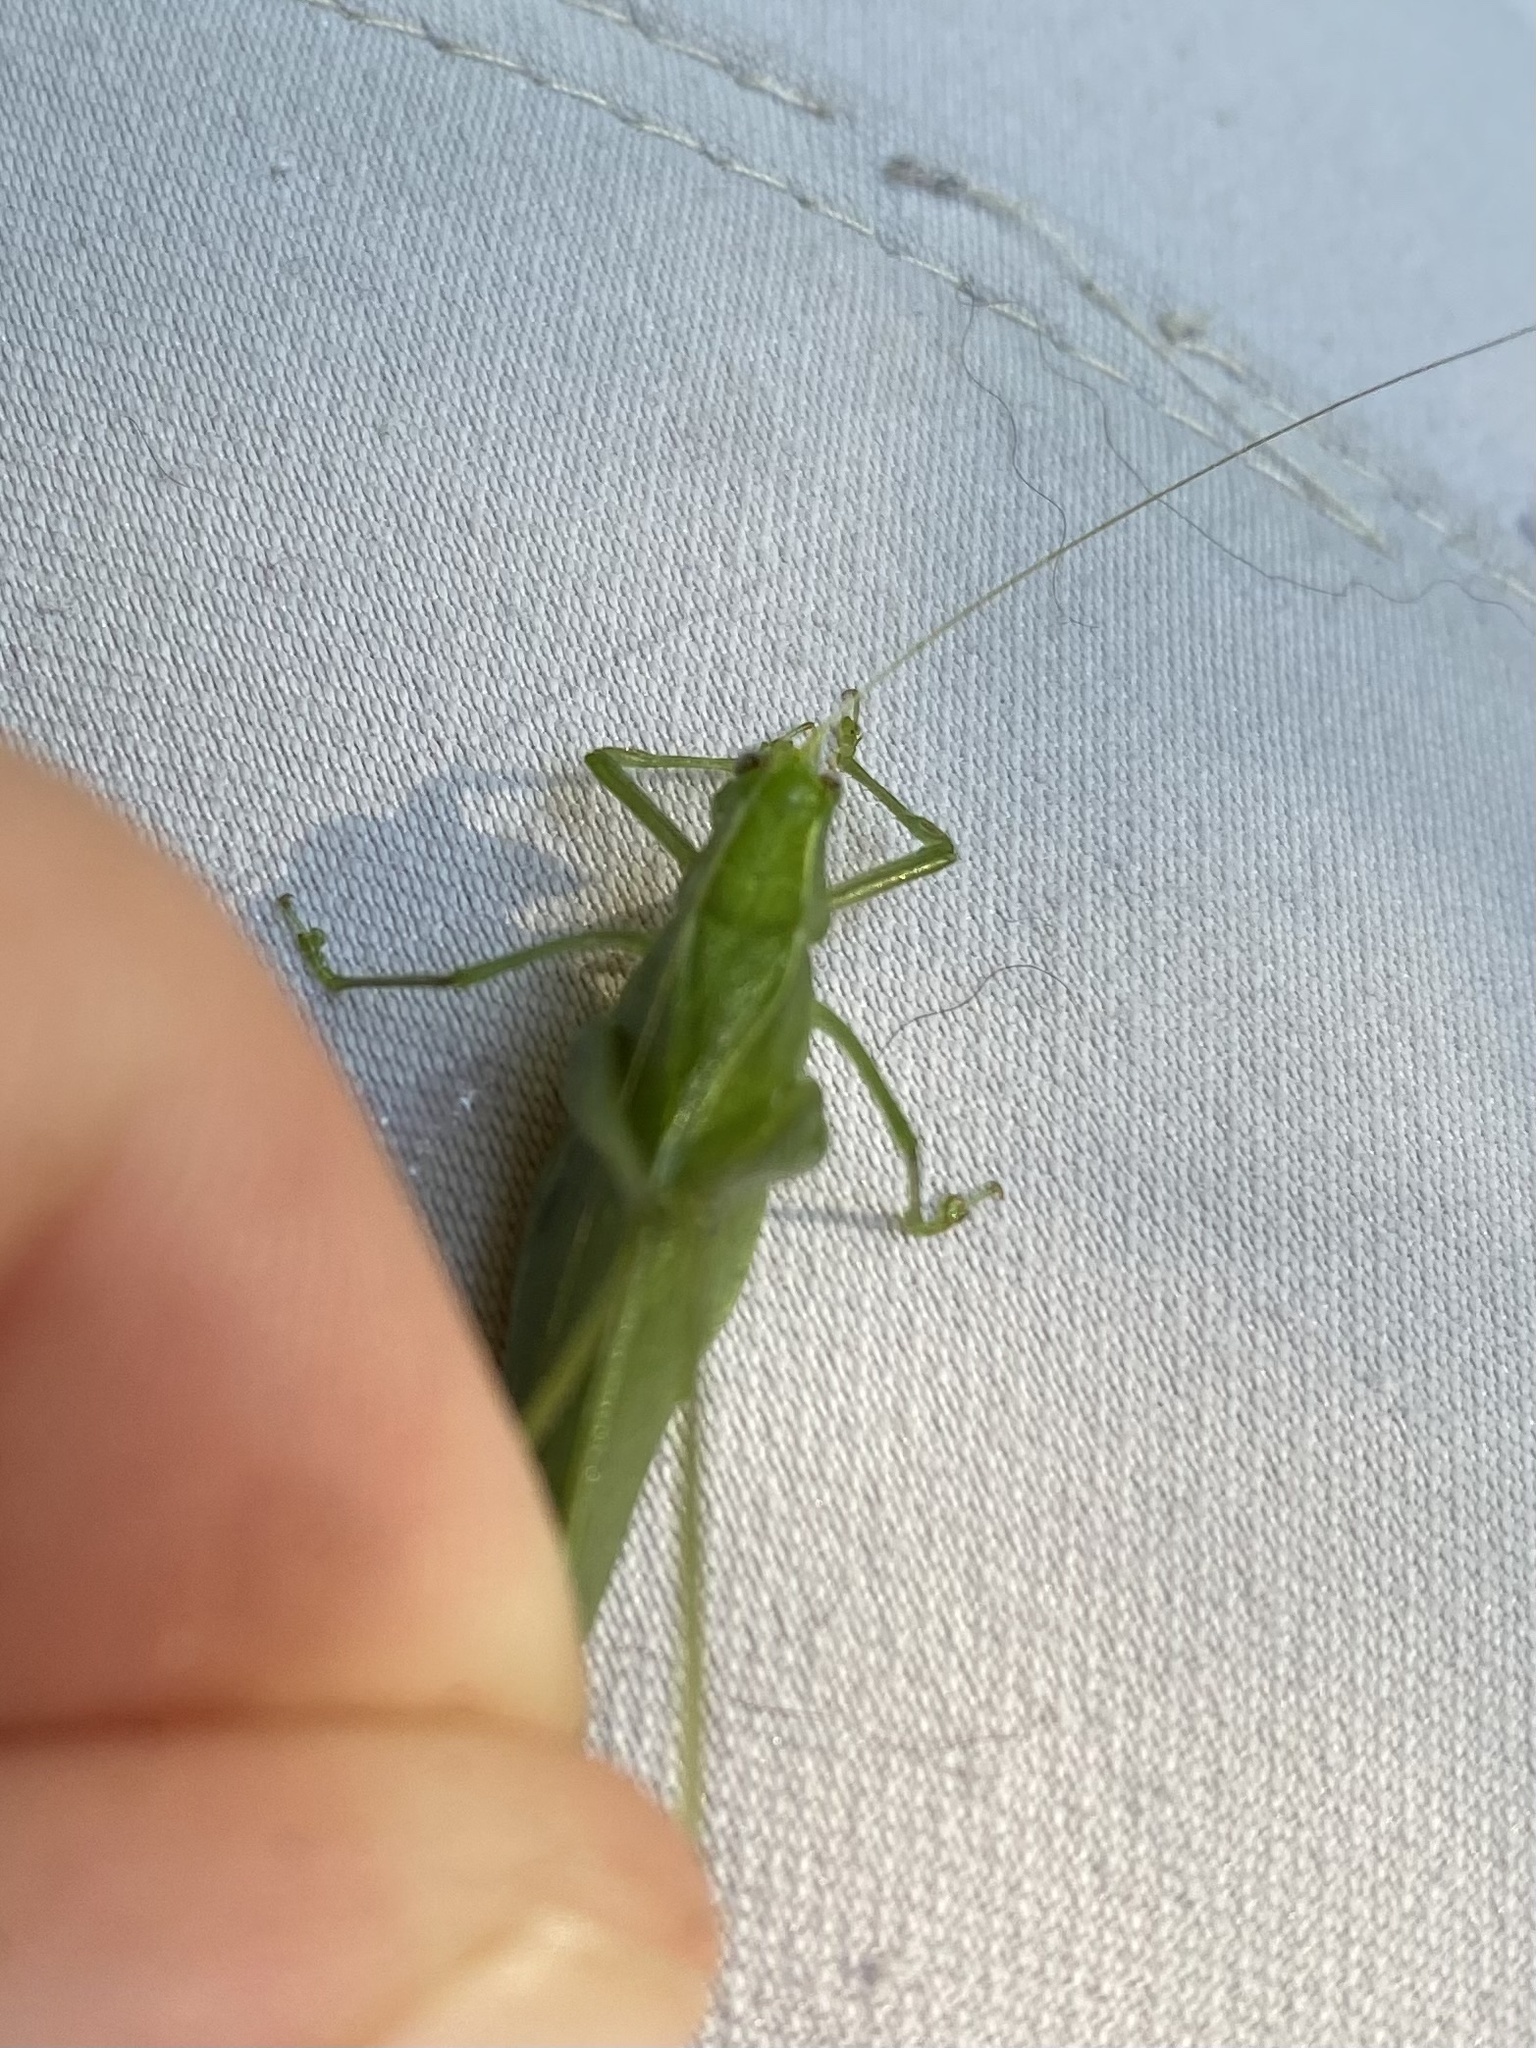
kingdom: Animalia
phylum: Arthropoda
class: Insecta
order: Orthoptera
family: Tettigoniidae
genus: Montezumina
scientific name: Montezumina modesta
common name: Modest katydid
